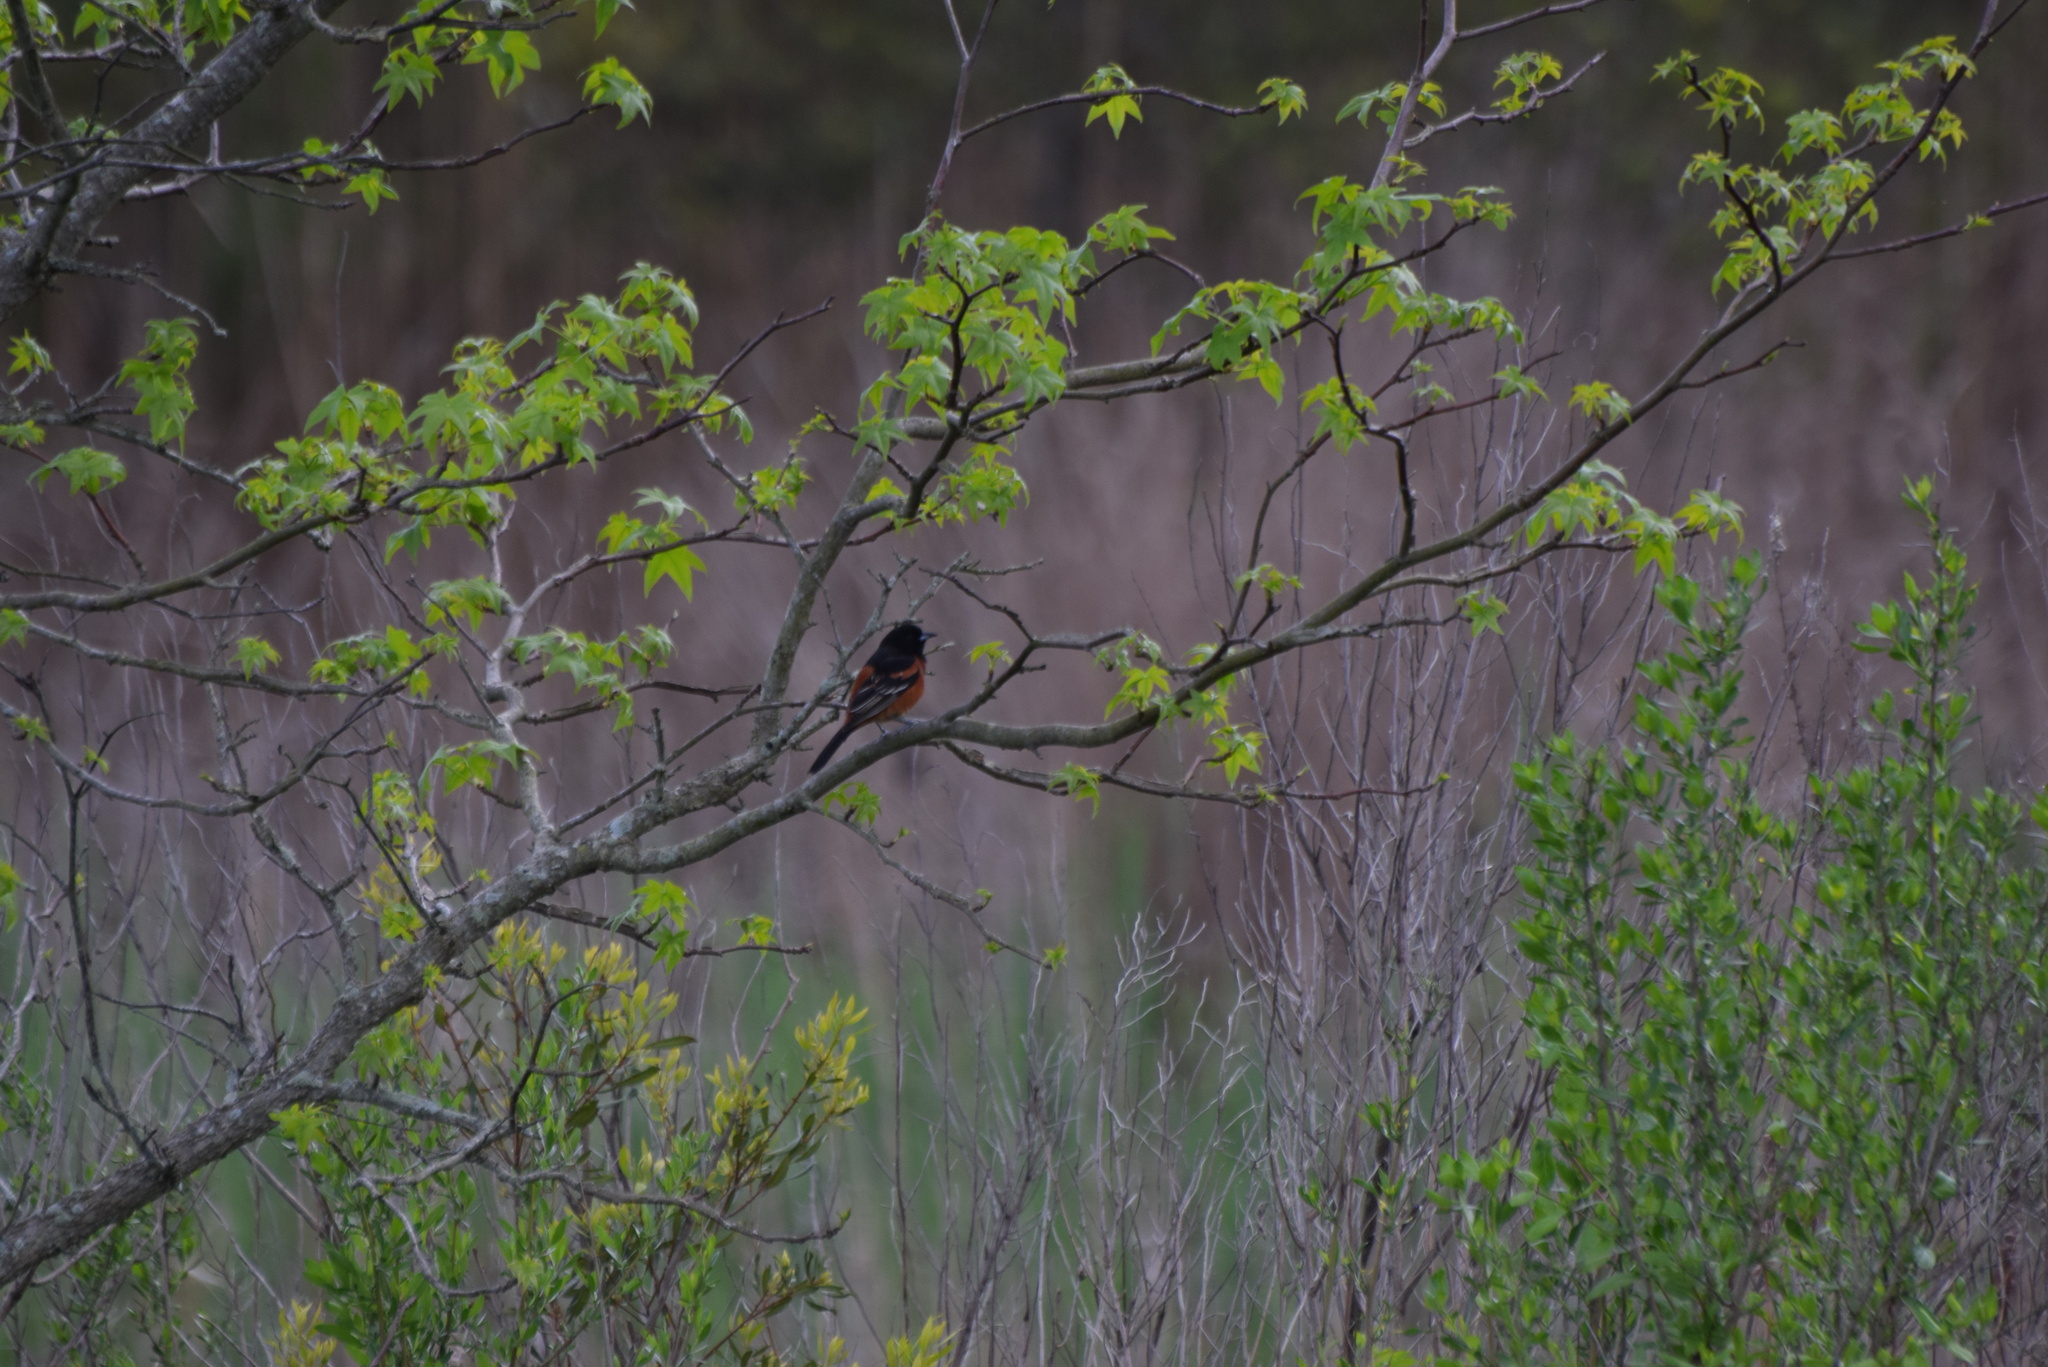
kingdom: Animalia
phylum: Chordata
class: Aves
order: Passeriformes
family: Icteridae
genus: Icterus
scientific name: Icterus spurius
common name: Orchard oriole
